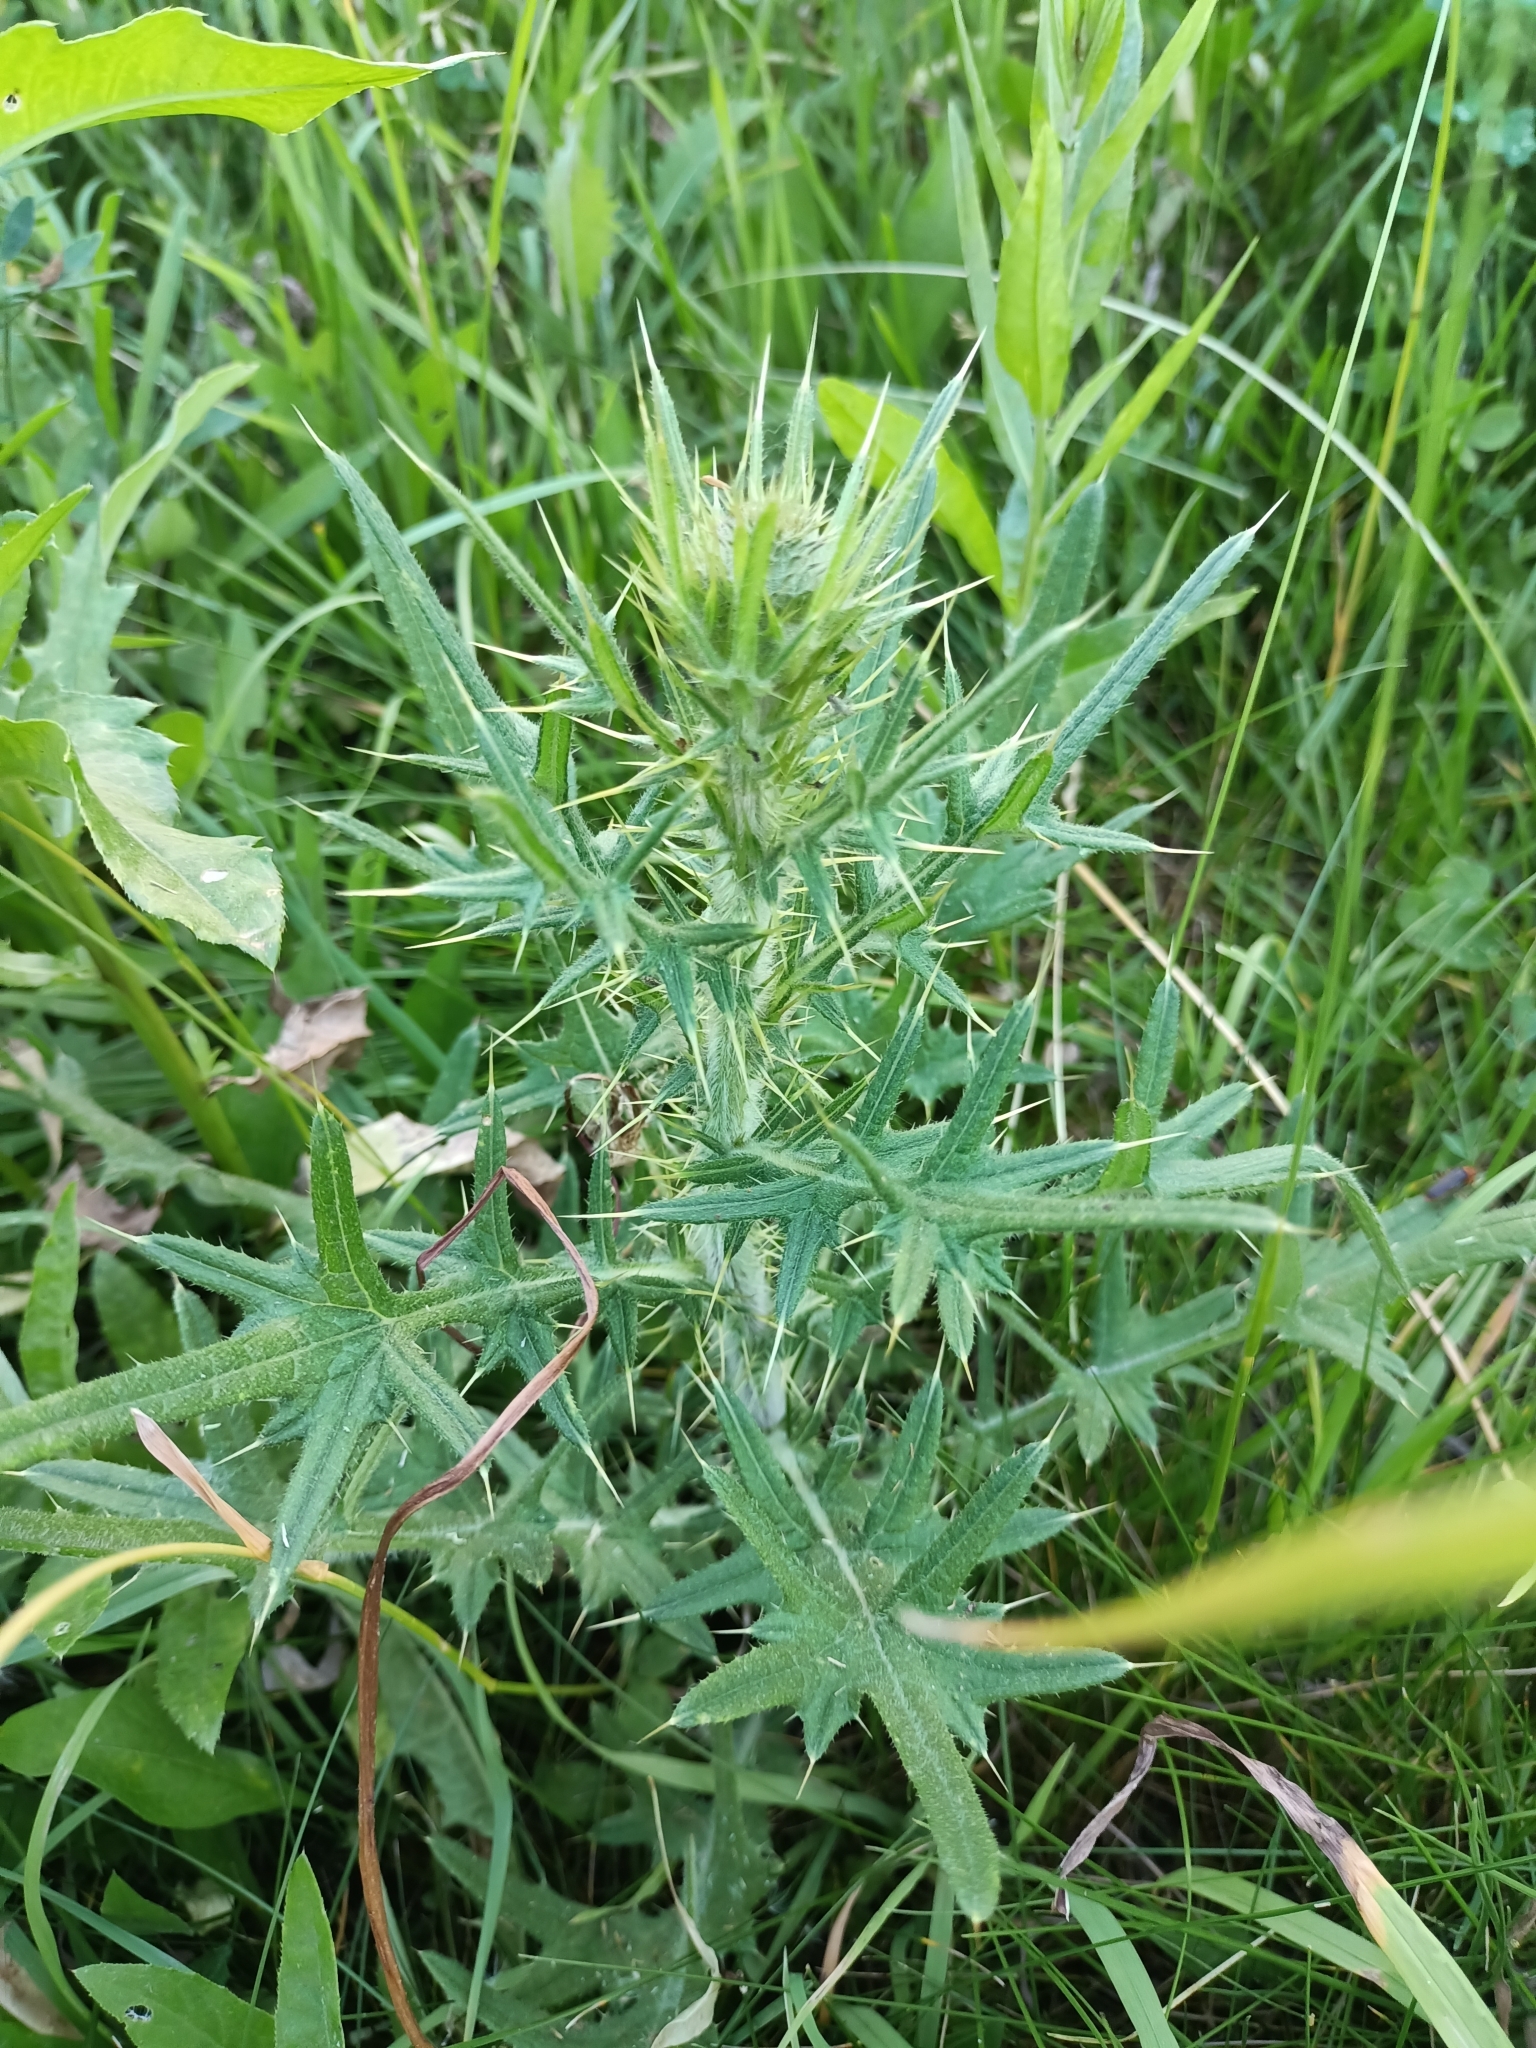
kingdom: Plantae
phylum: Tracheophyta
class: Magnoliopsida
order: Asterales
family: Asteraceae
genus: Cirsium
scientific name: Cirsium vulgare
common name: Bull thistle
